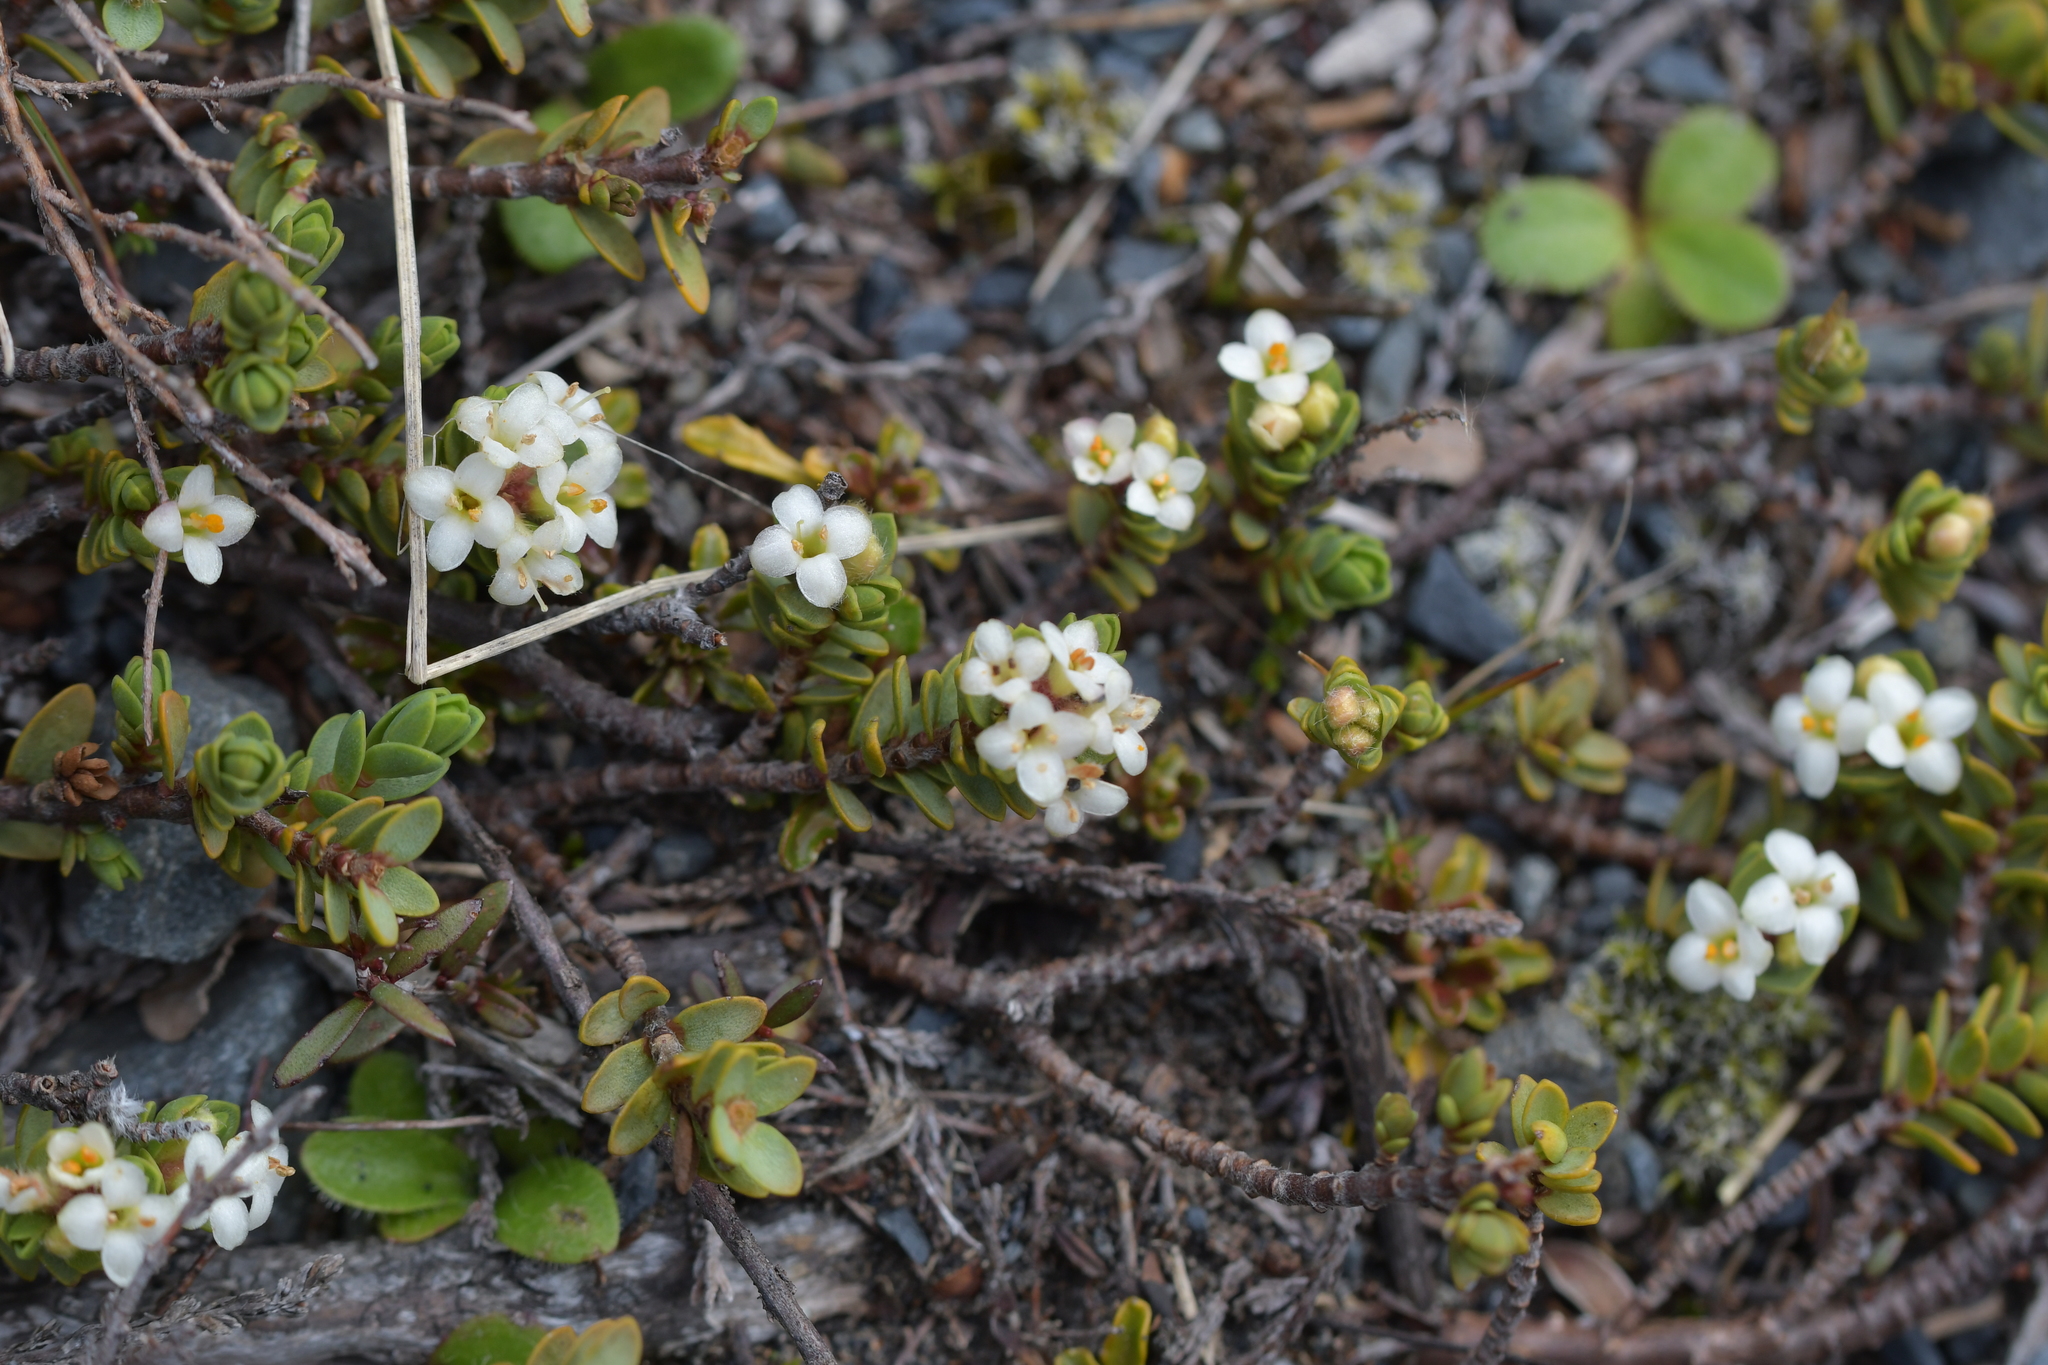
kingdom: Plantae
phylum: Tracheophyta
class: Magnoliopsida
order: Malvales
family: Thymelaeaceae
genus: Pimelea
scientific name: Pimelea microphylla
